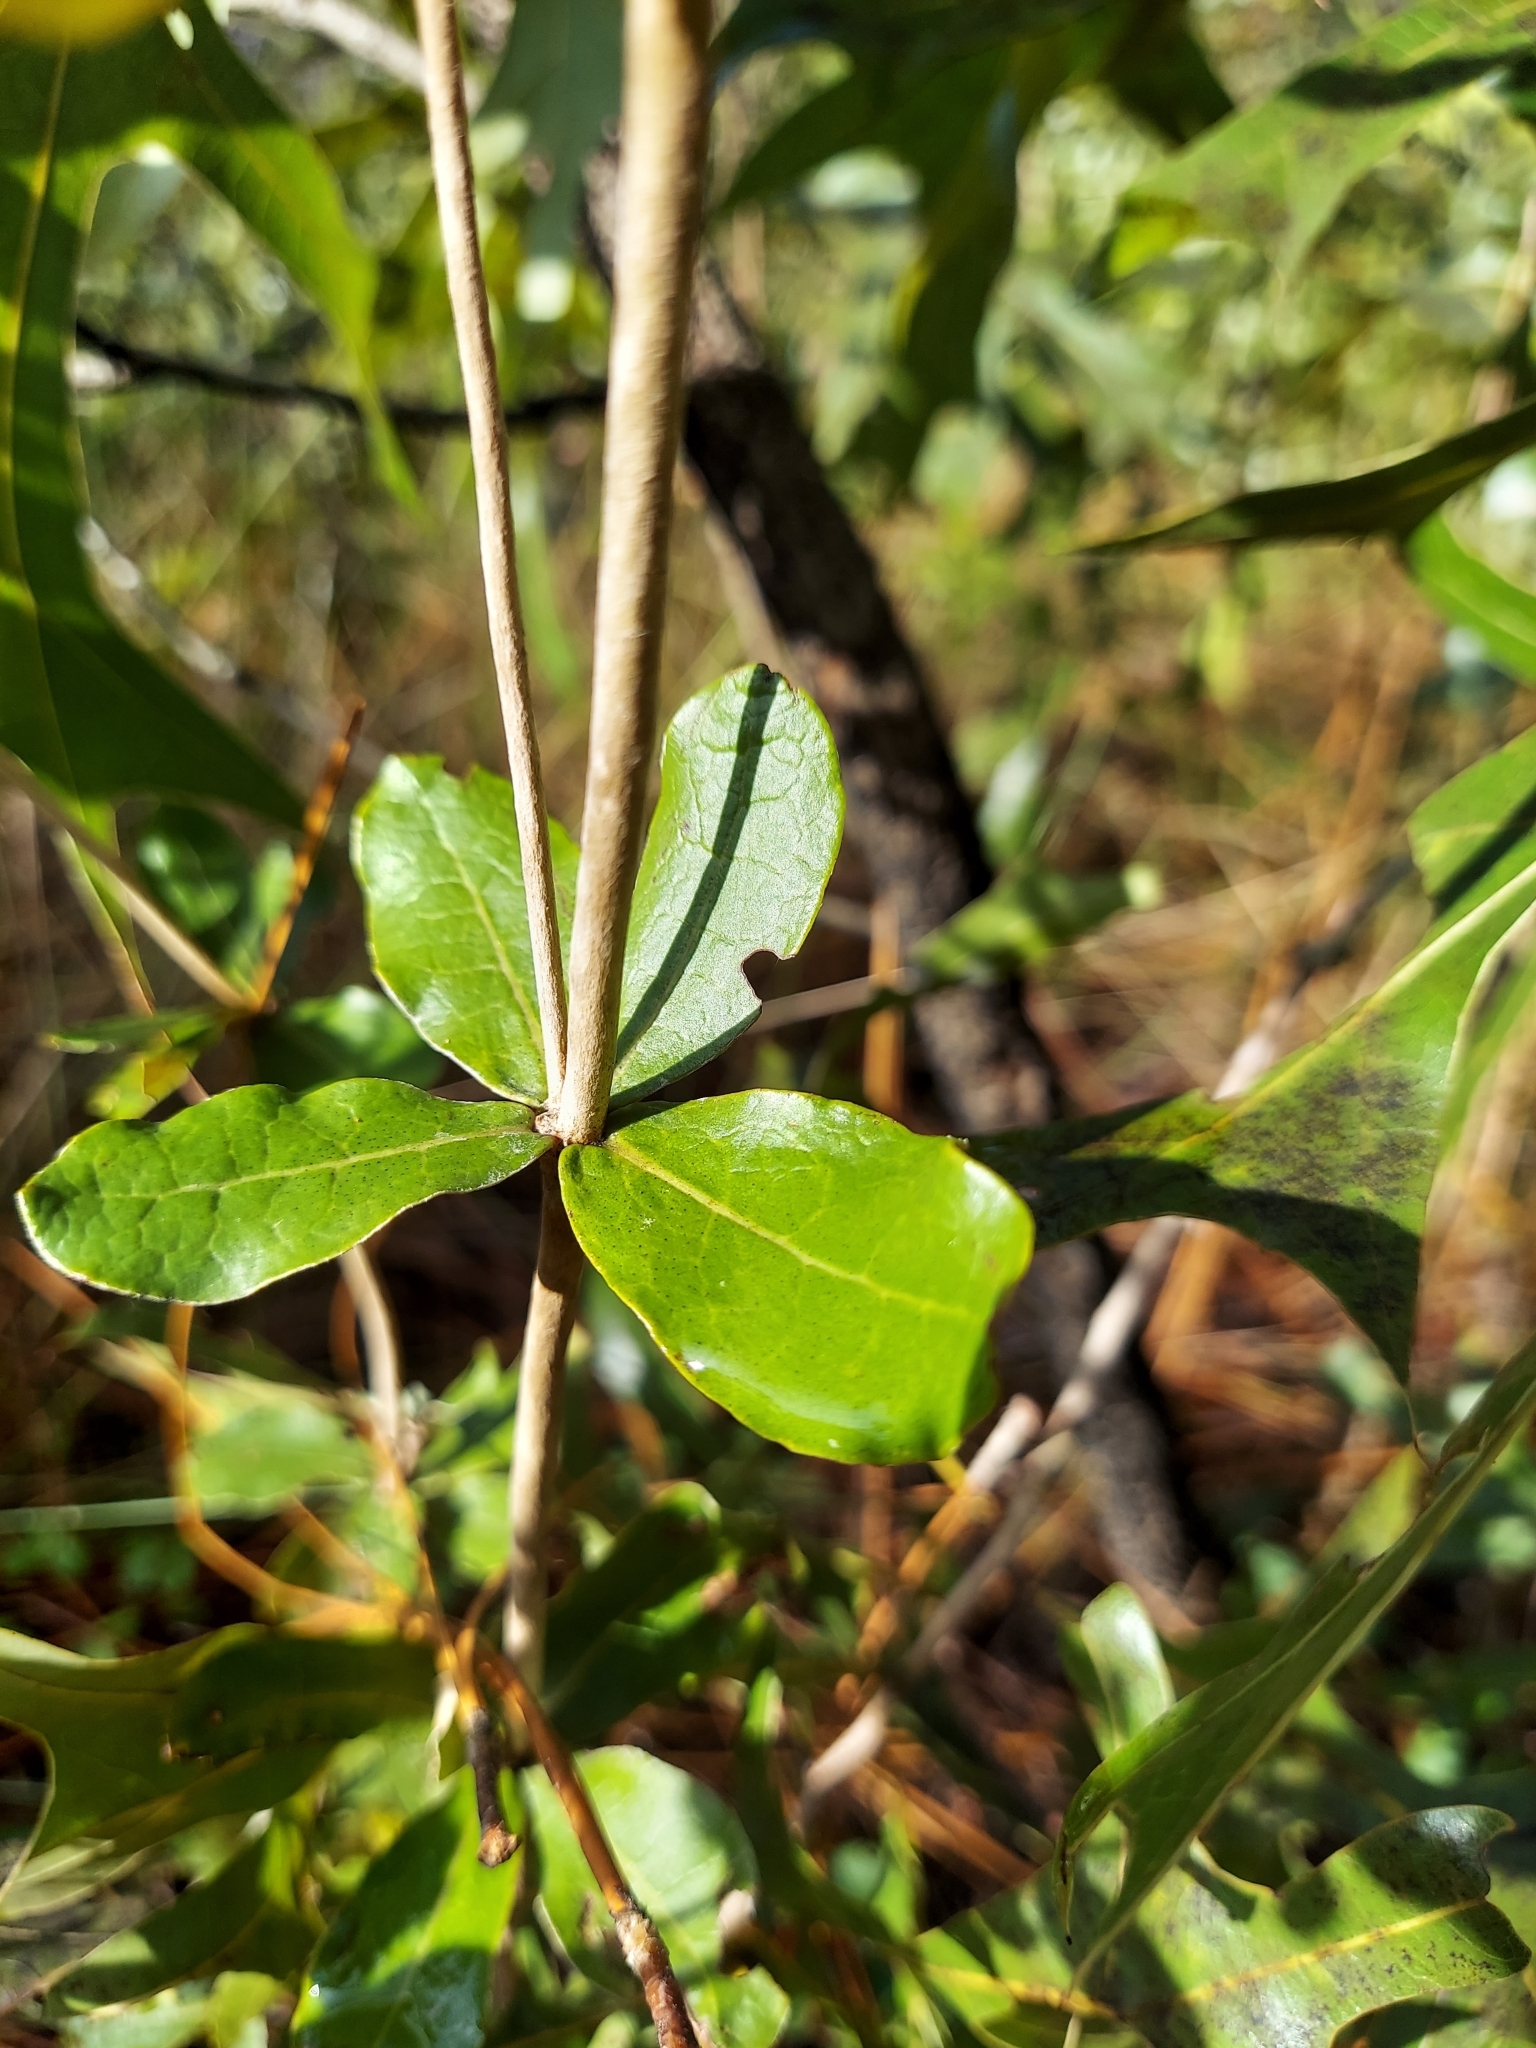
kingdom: Plantae
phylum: Tracheophyta
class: Magnoliopsida
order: Caryophyllales
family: Polygonaceae
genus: Eriogonum
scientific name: Eriogonum tomentosum
